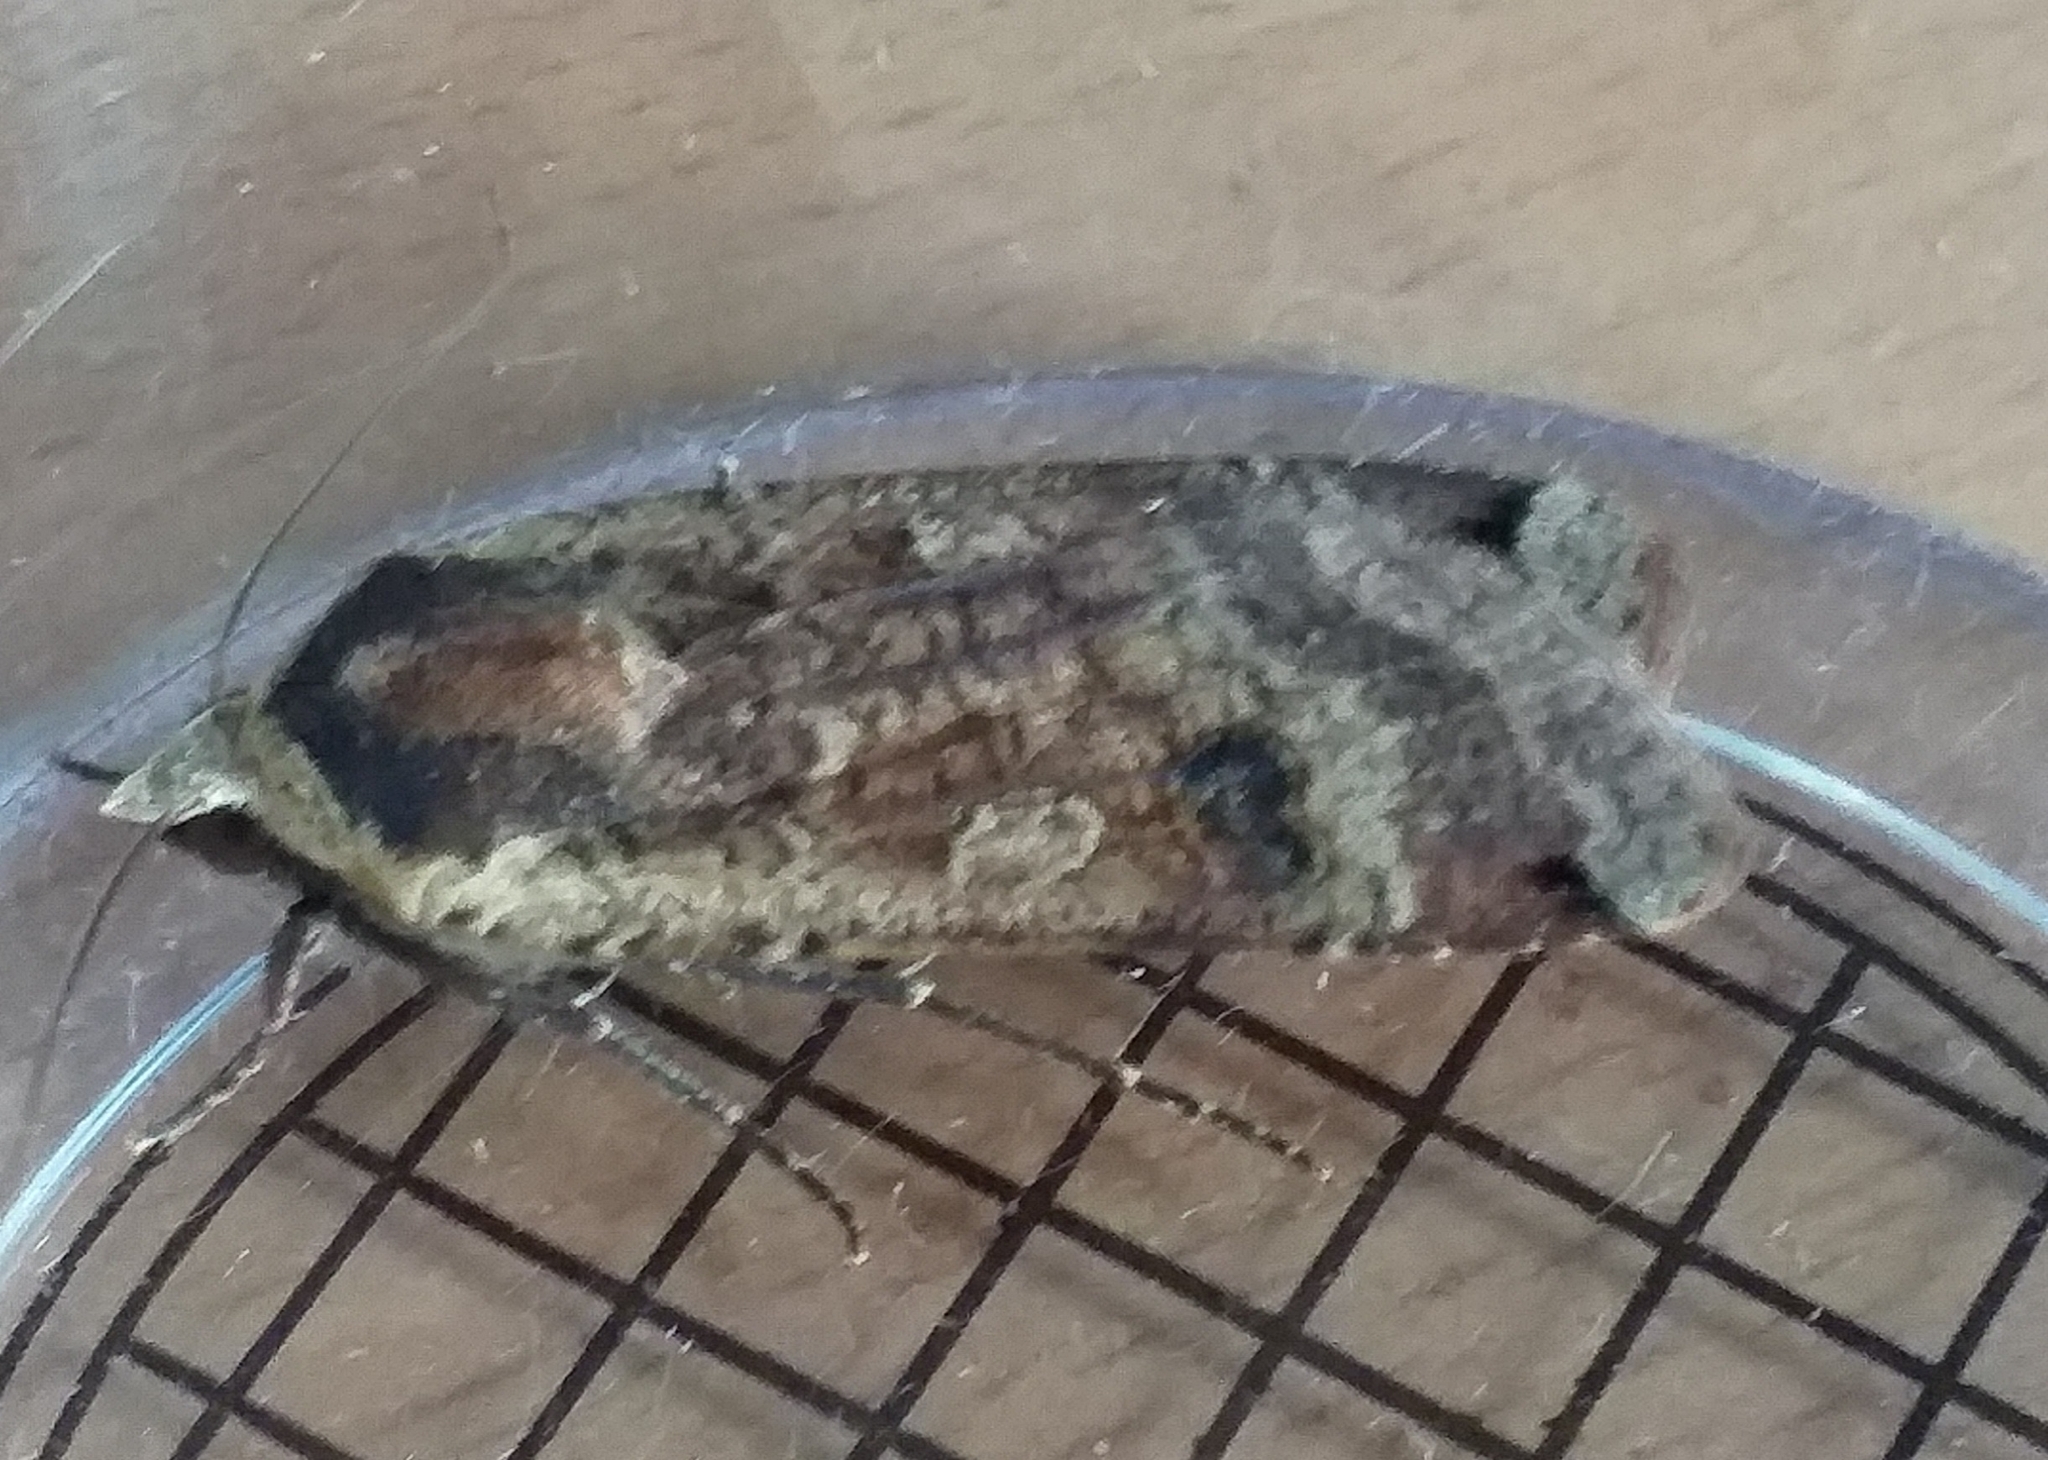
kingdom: Animalia
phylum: Arthropoda
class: Insecta
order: Lepidoptera
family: Noctuidae
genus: Noctua
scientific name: Noctua pronuba
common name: Large yellow underwing
